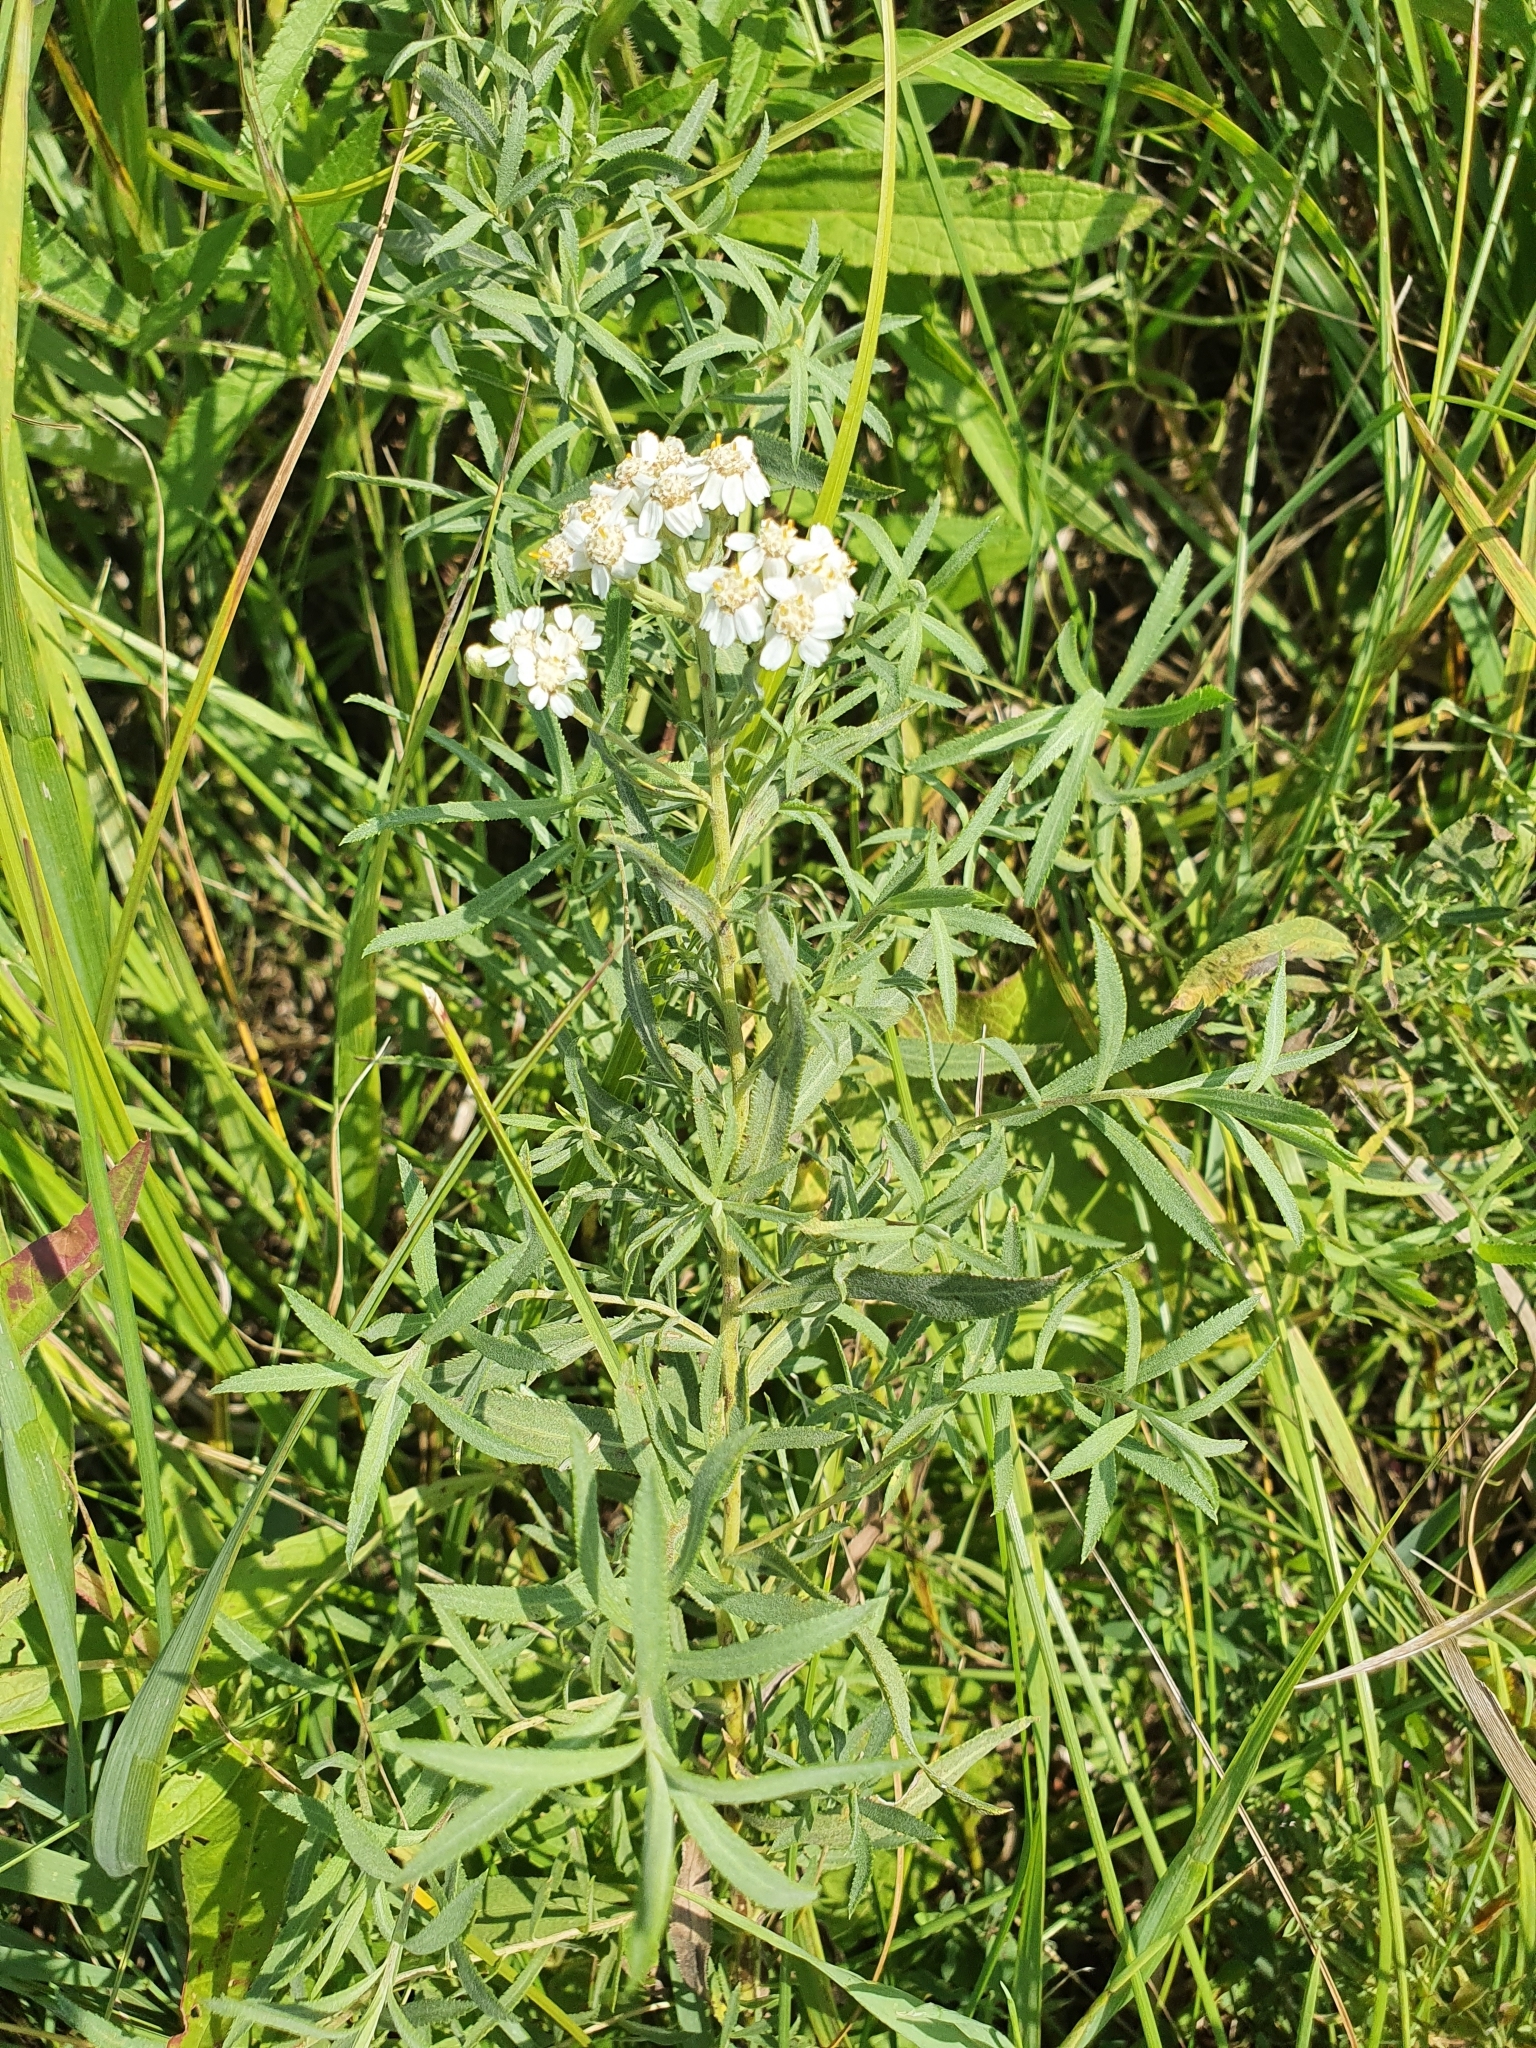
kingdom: Plantae
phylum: Tracheophyta
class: Magnoliopsida
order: Asterales
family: Asteraceae
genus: Achillea
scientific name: Achillea salicifolia
